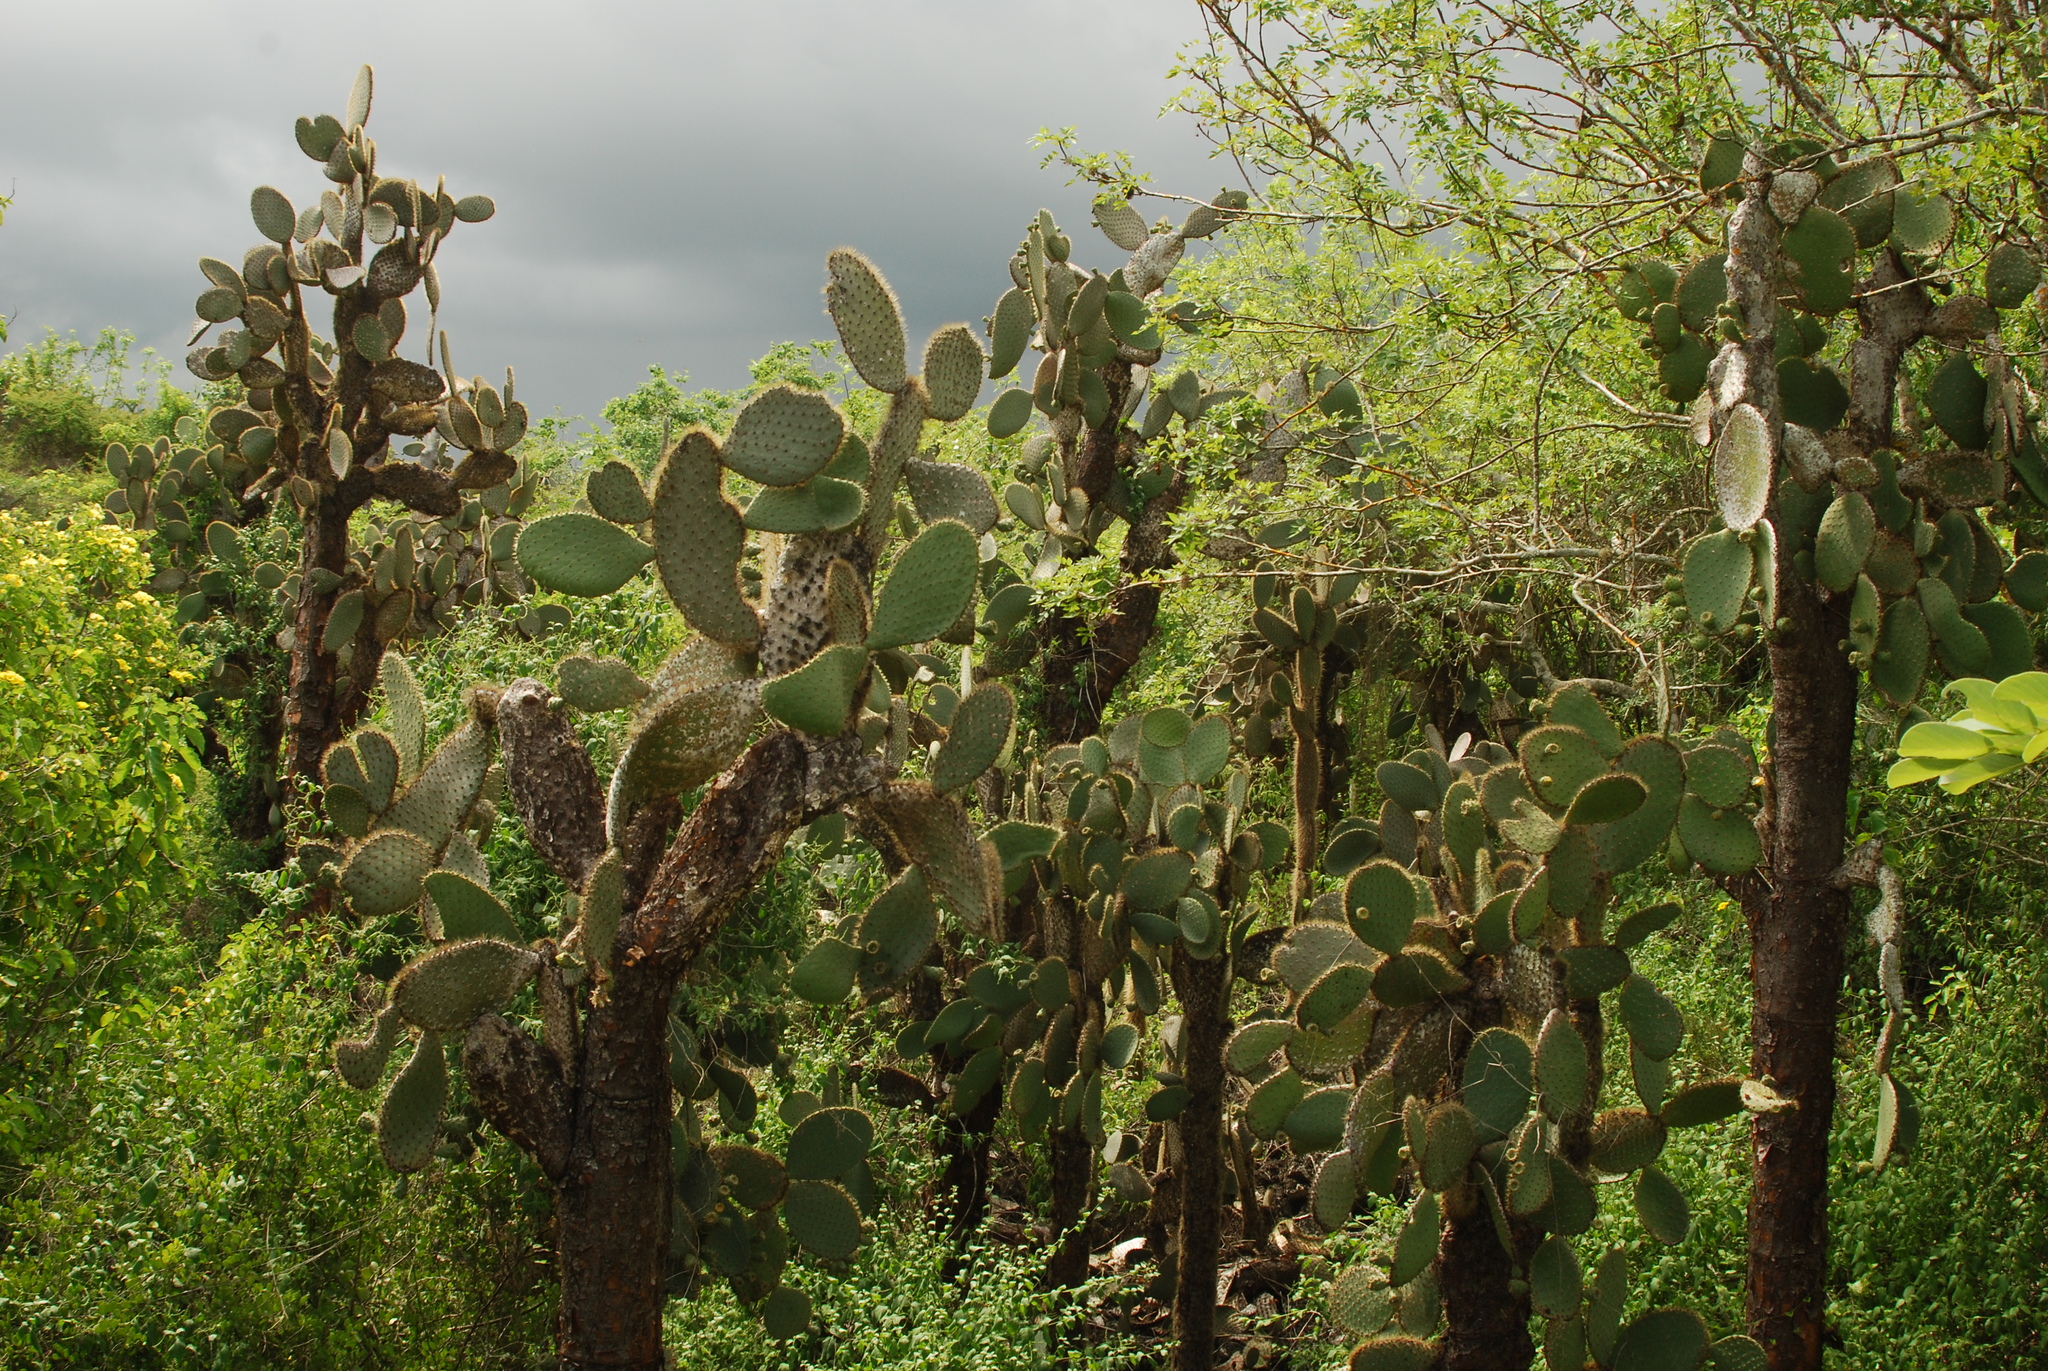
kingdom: Plantae
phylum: Tracheophyta
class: Magnoliopsida
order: Caryophyllales
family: Cactaceae
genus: Opuntia
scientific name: Opuntia galapageia
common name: Galápagos prickly pear
